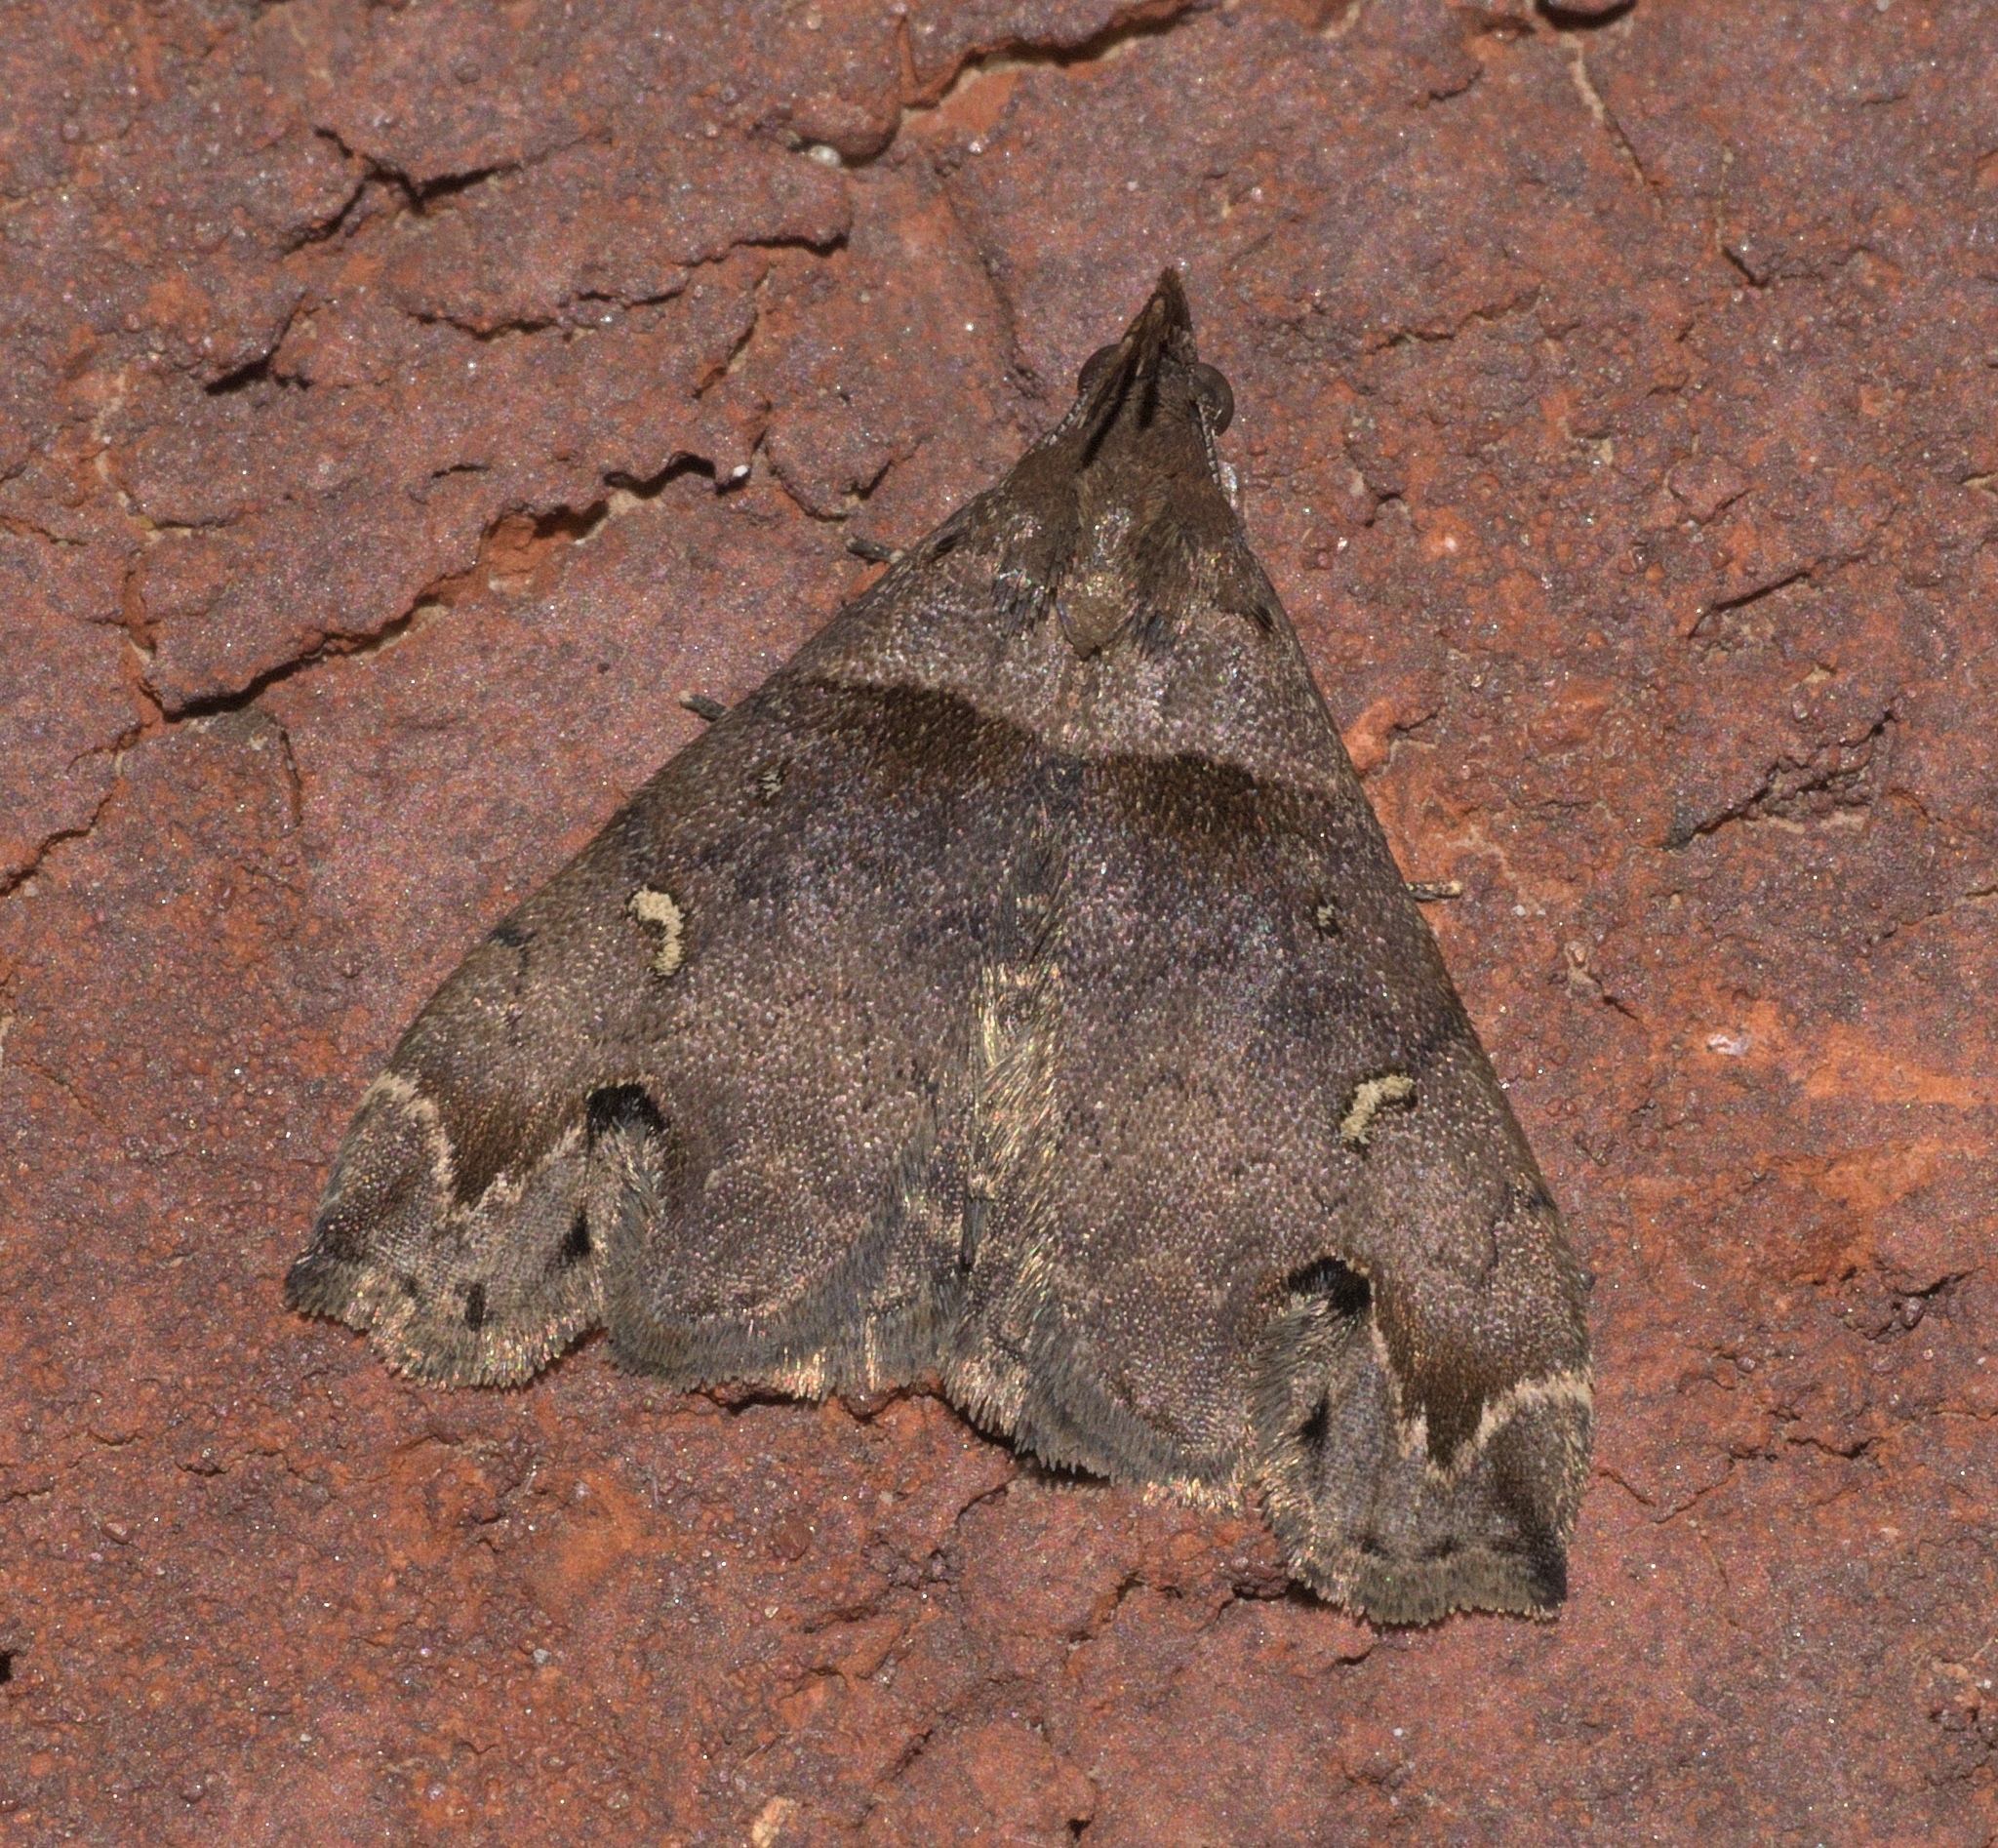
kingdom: Animalia
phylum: Arthropoda
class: Insecta
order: Lepidoptera
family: Erebidae
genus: Lascoria
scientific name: Lascoria ambigualis
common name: Ambiguous moth
